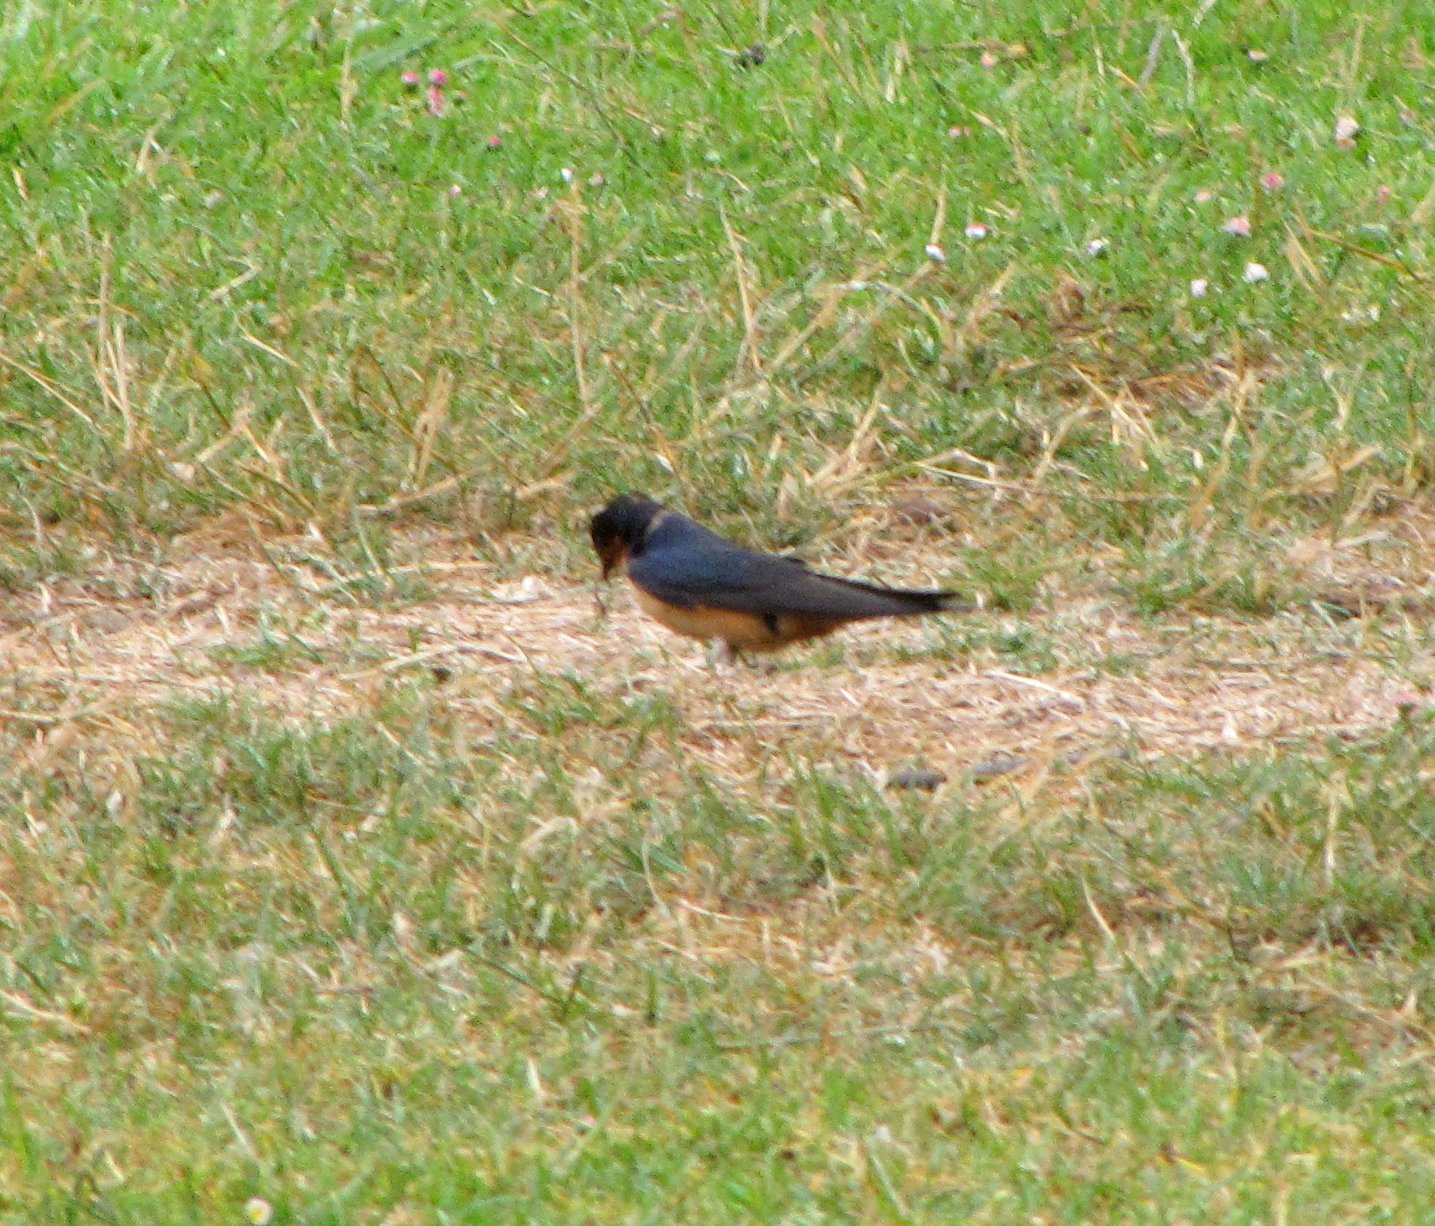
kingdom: Animalia
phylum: Chordata
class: Aves
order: Passeriformes
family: Hirundinidae
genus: Hirundo
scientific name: Hirundo rustica
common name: Barn swallow
